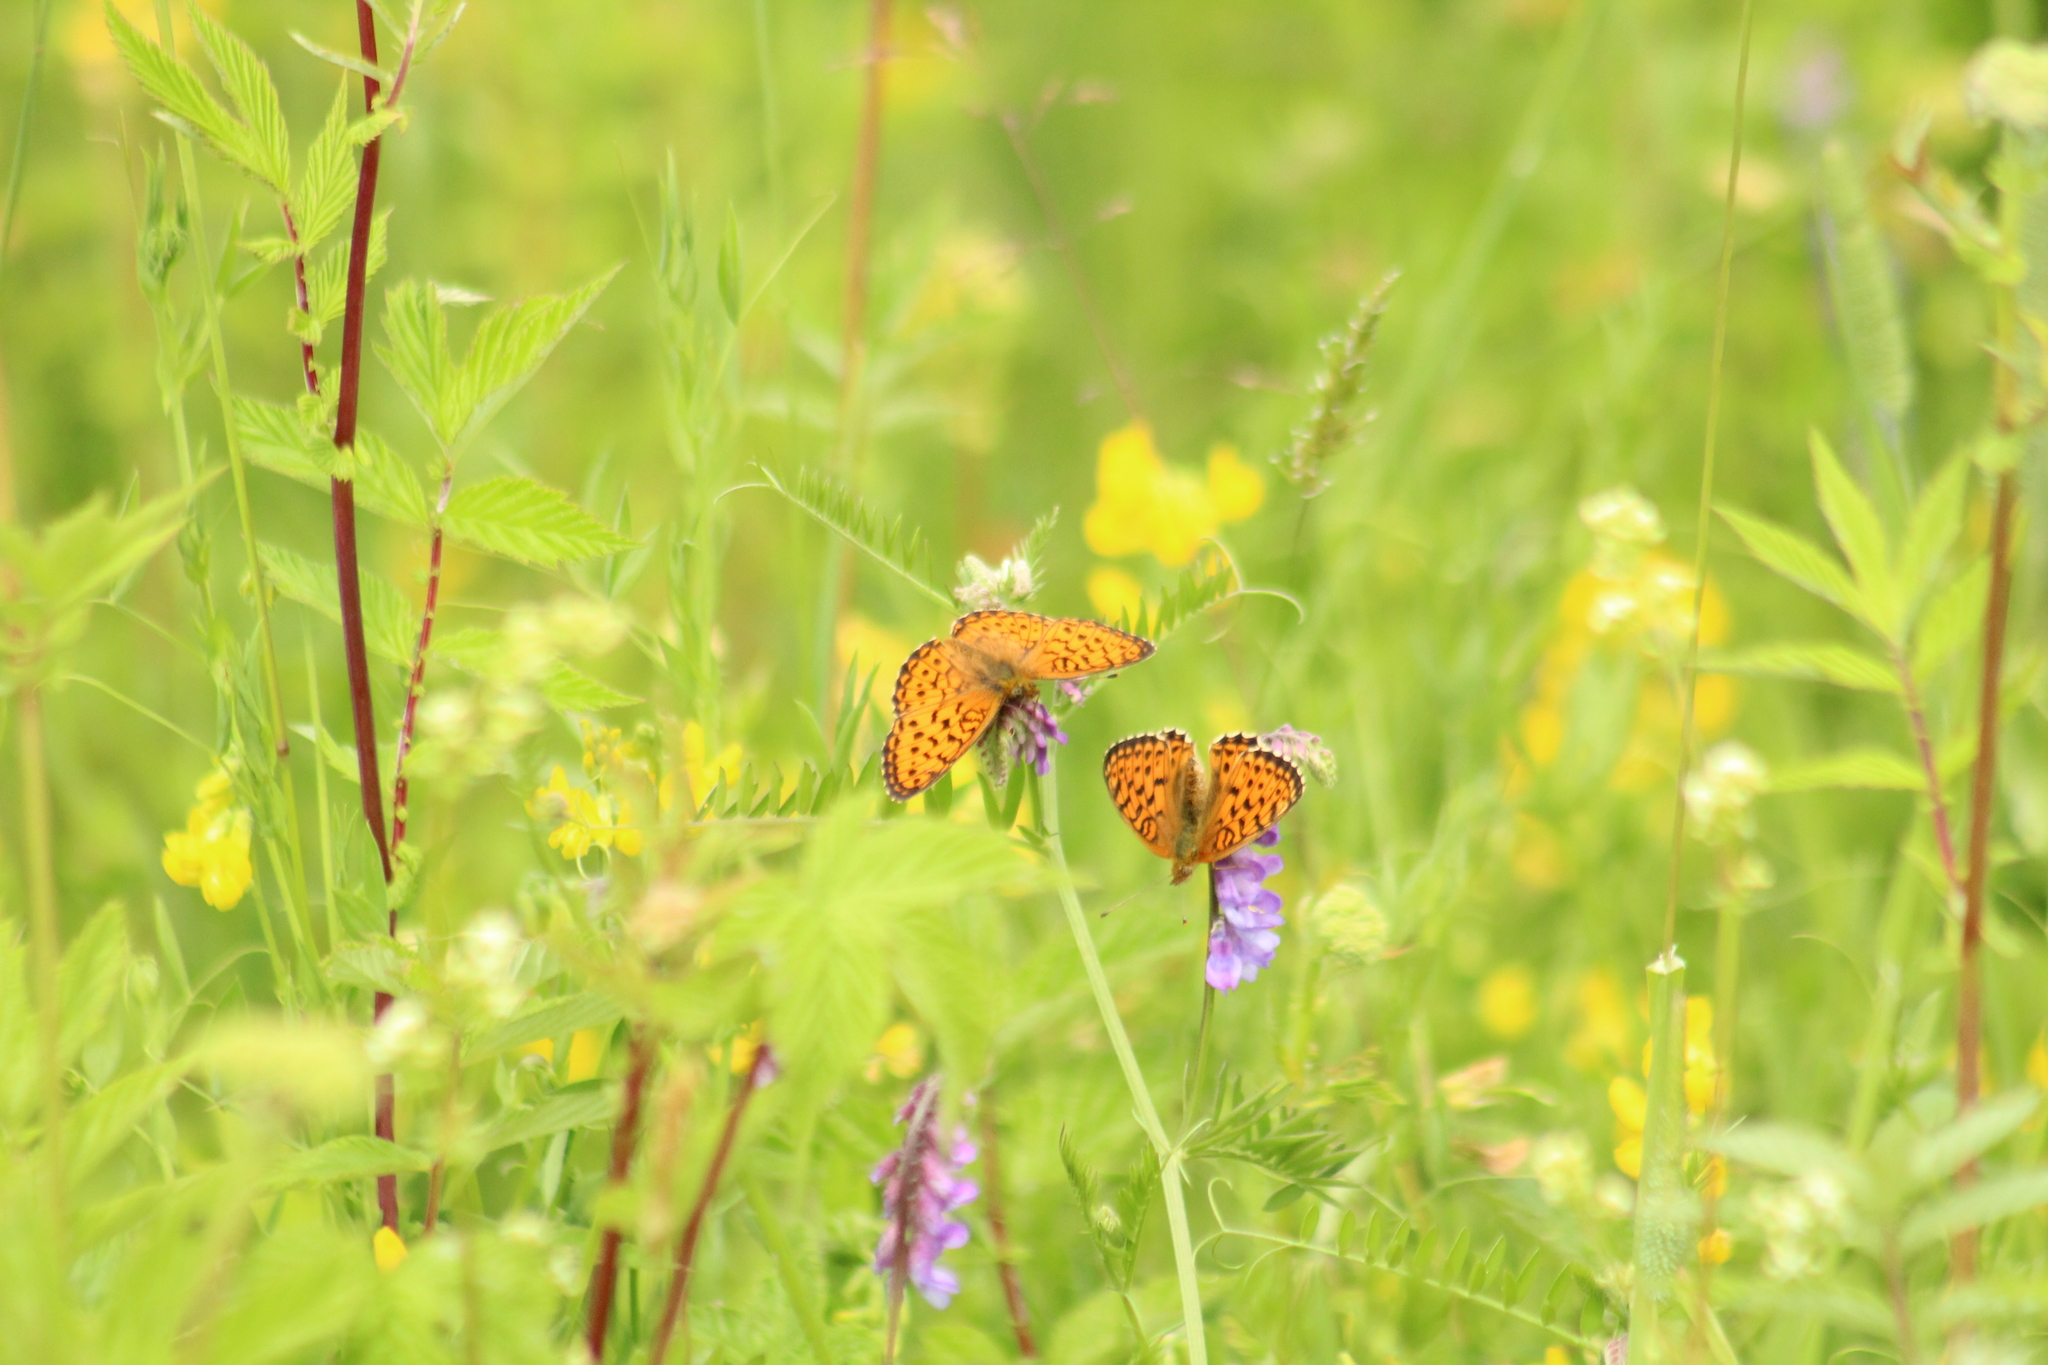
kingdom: Animalia
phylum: Arthropoda
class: Insecta
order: Lepidoptera
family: Nymphalidae
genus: Brenthis
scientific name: Brenthis ino
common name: Lesser marbled fritillary
